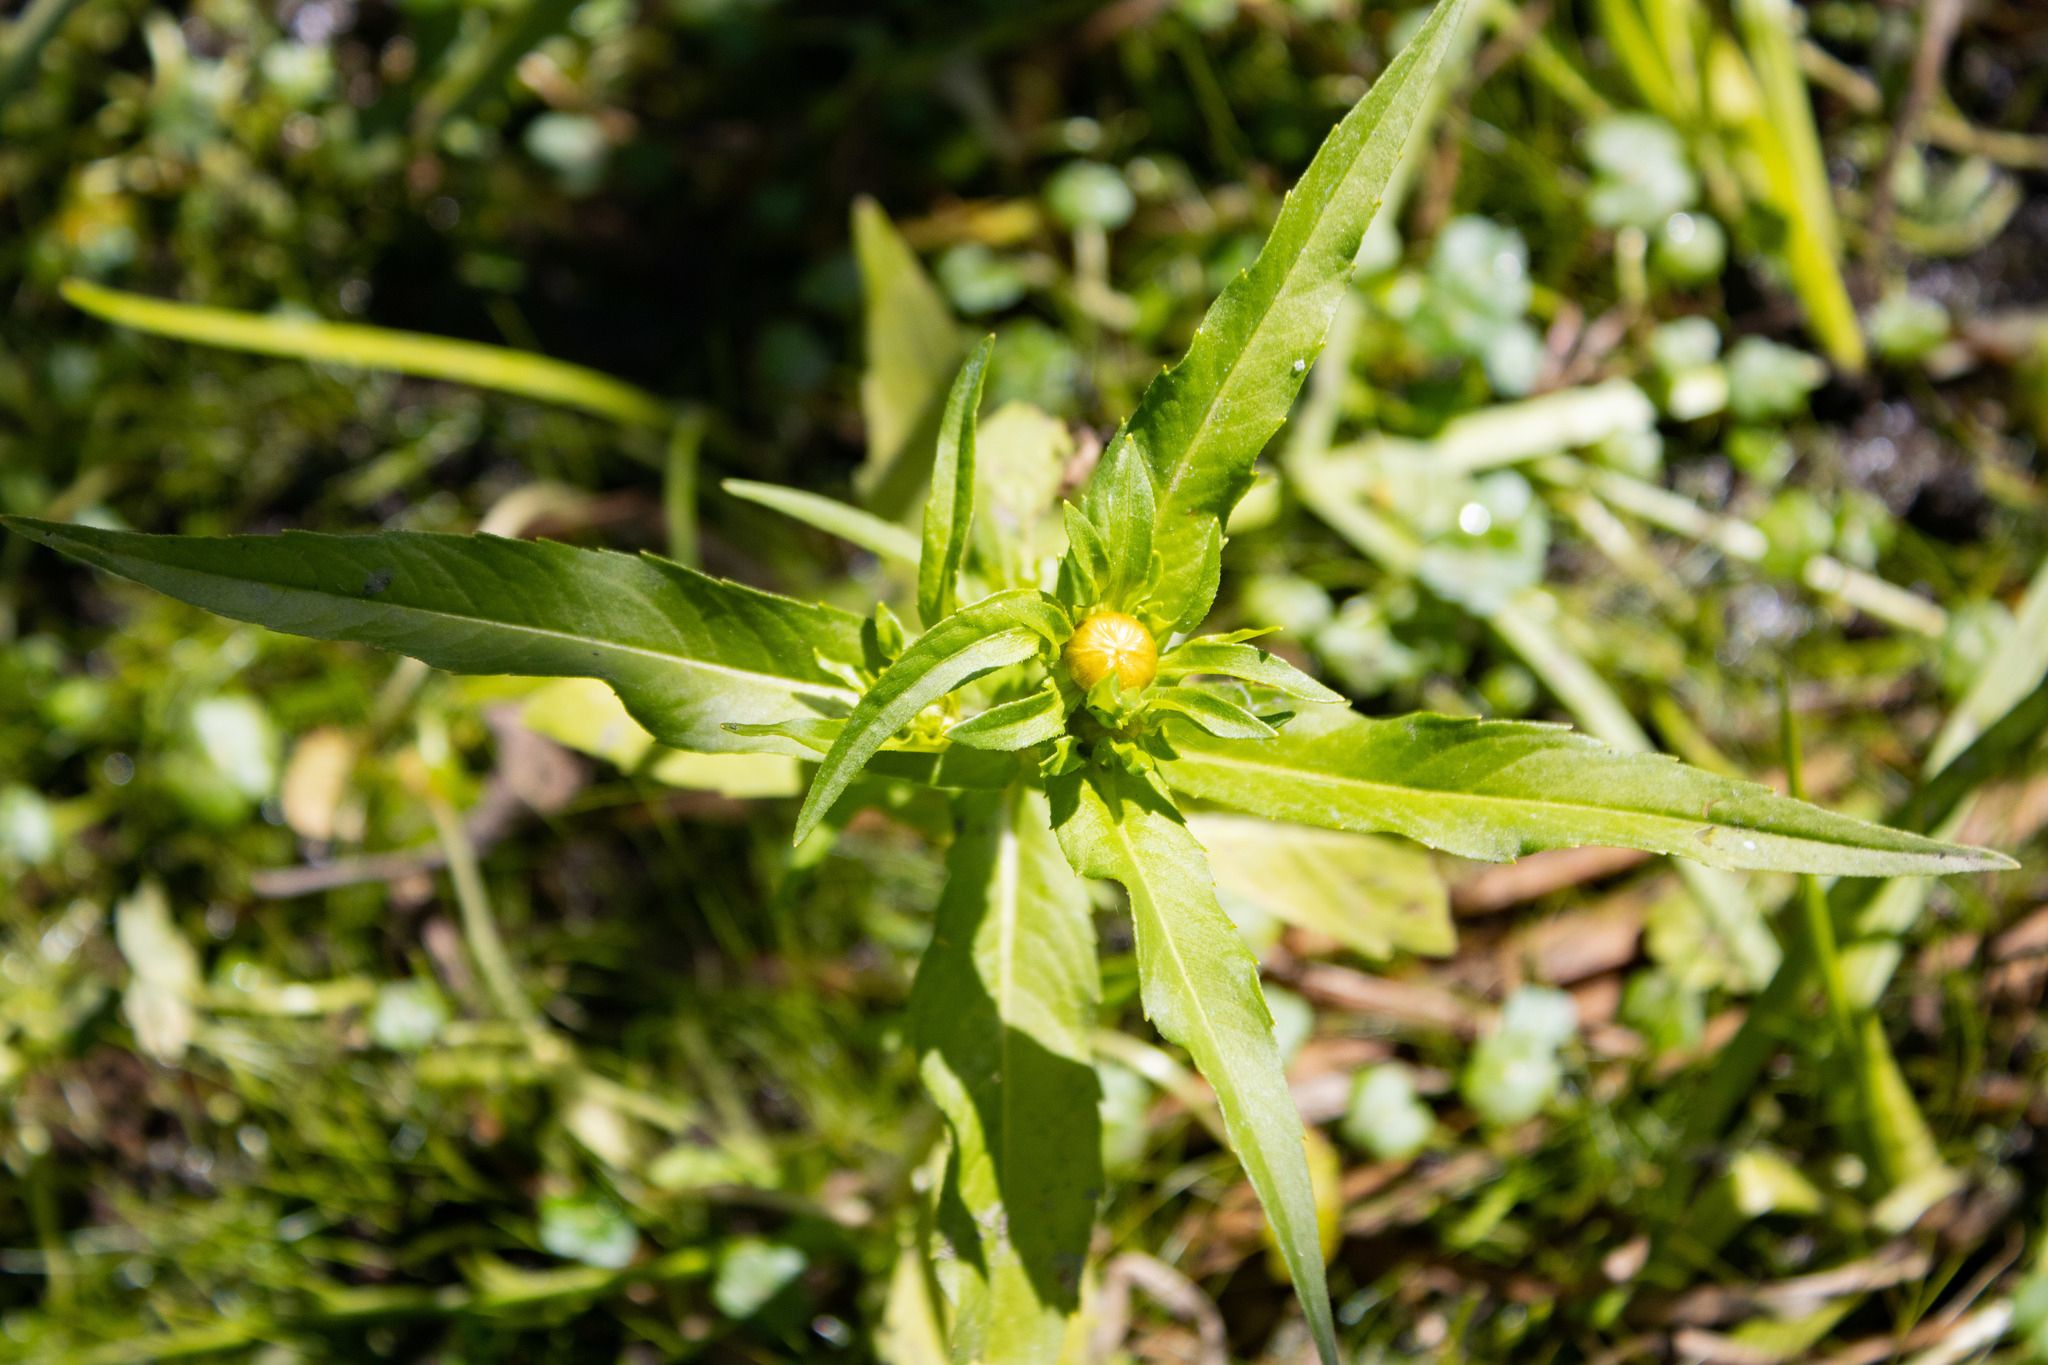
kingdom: Plantae
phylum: Tracheophyta
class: Magnoliopsida
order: Asterales
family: Asteraceae
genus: Bidens
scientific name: Bidens cernua
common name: Nodding bur-marigold
